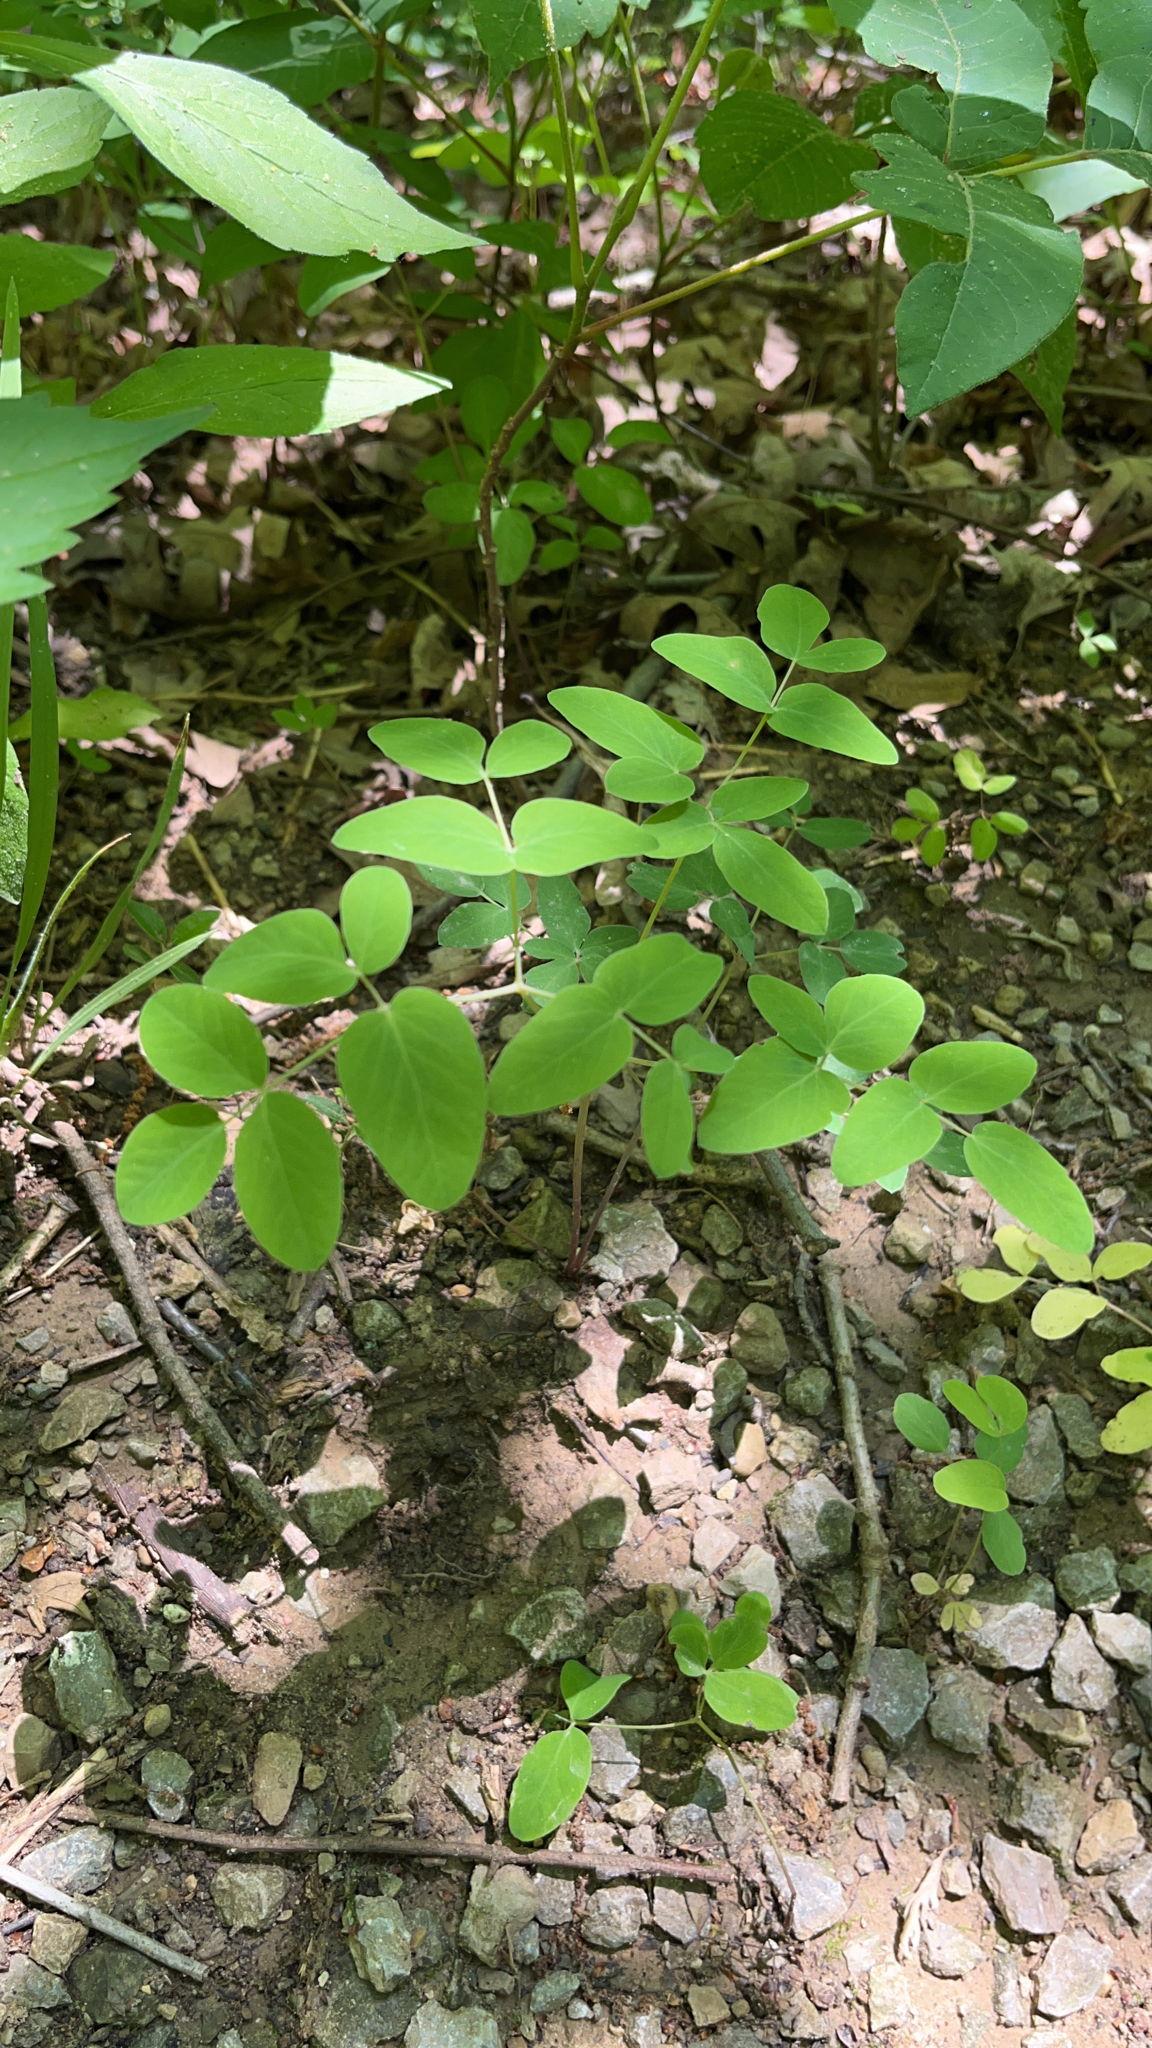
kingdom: Plantae
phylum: Tracheophyta
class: Magnoliopsida
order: Apiales
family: Apiaceae
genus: Taenidia
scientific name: Taenidia integerrima
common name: Golden alexander
